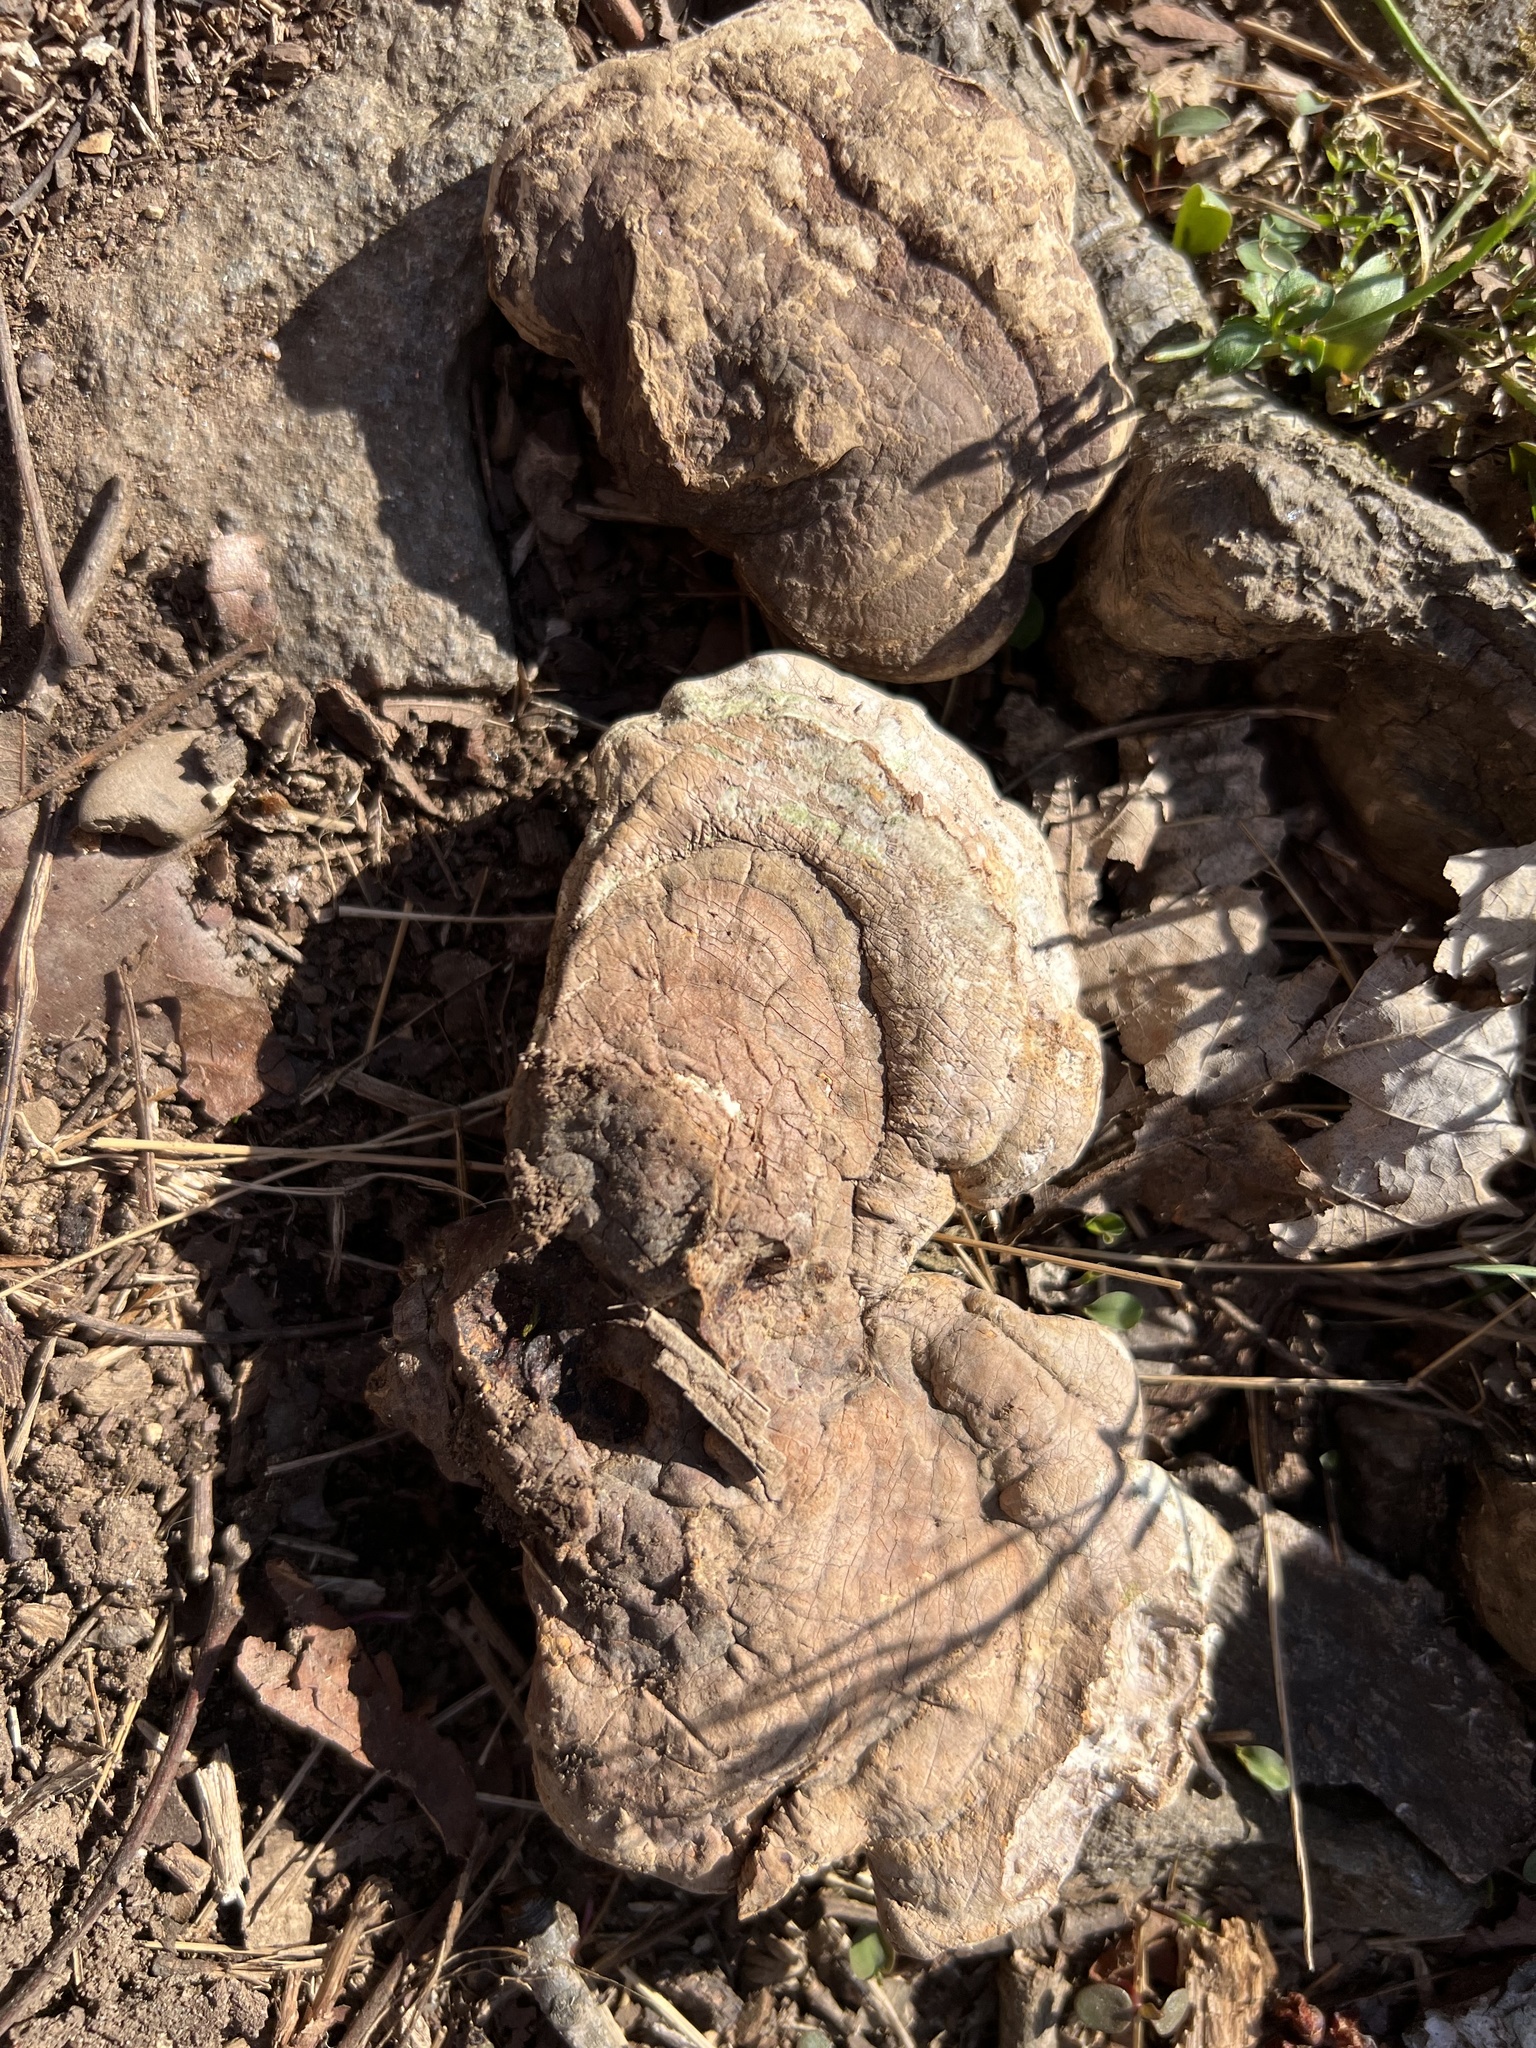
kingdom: Fungi
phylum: Basidiomycota
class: Agaricomycetes
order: Polyporales
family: Polyporaceae
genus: Ganoderma
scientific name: Ganoderma applanatum
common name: Artist's bracket
